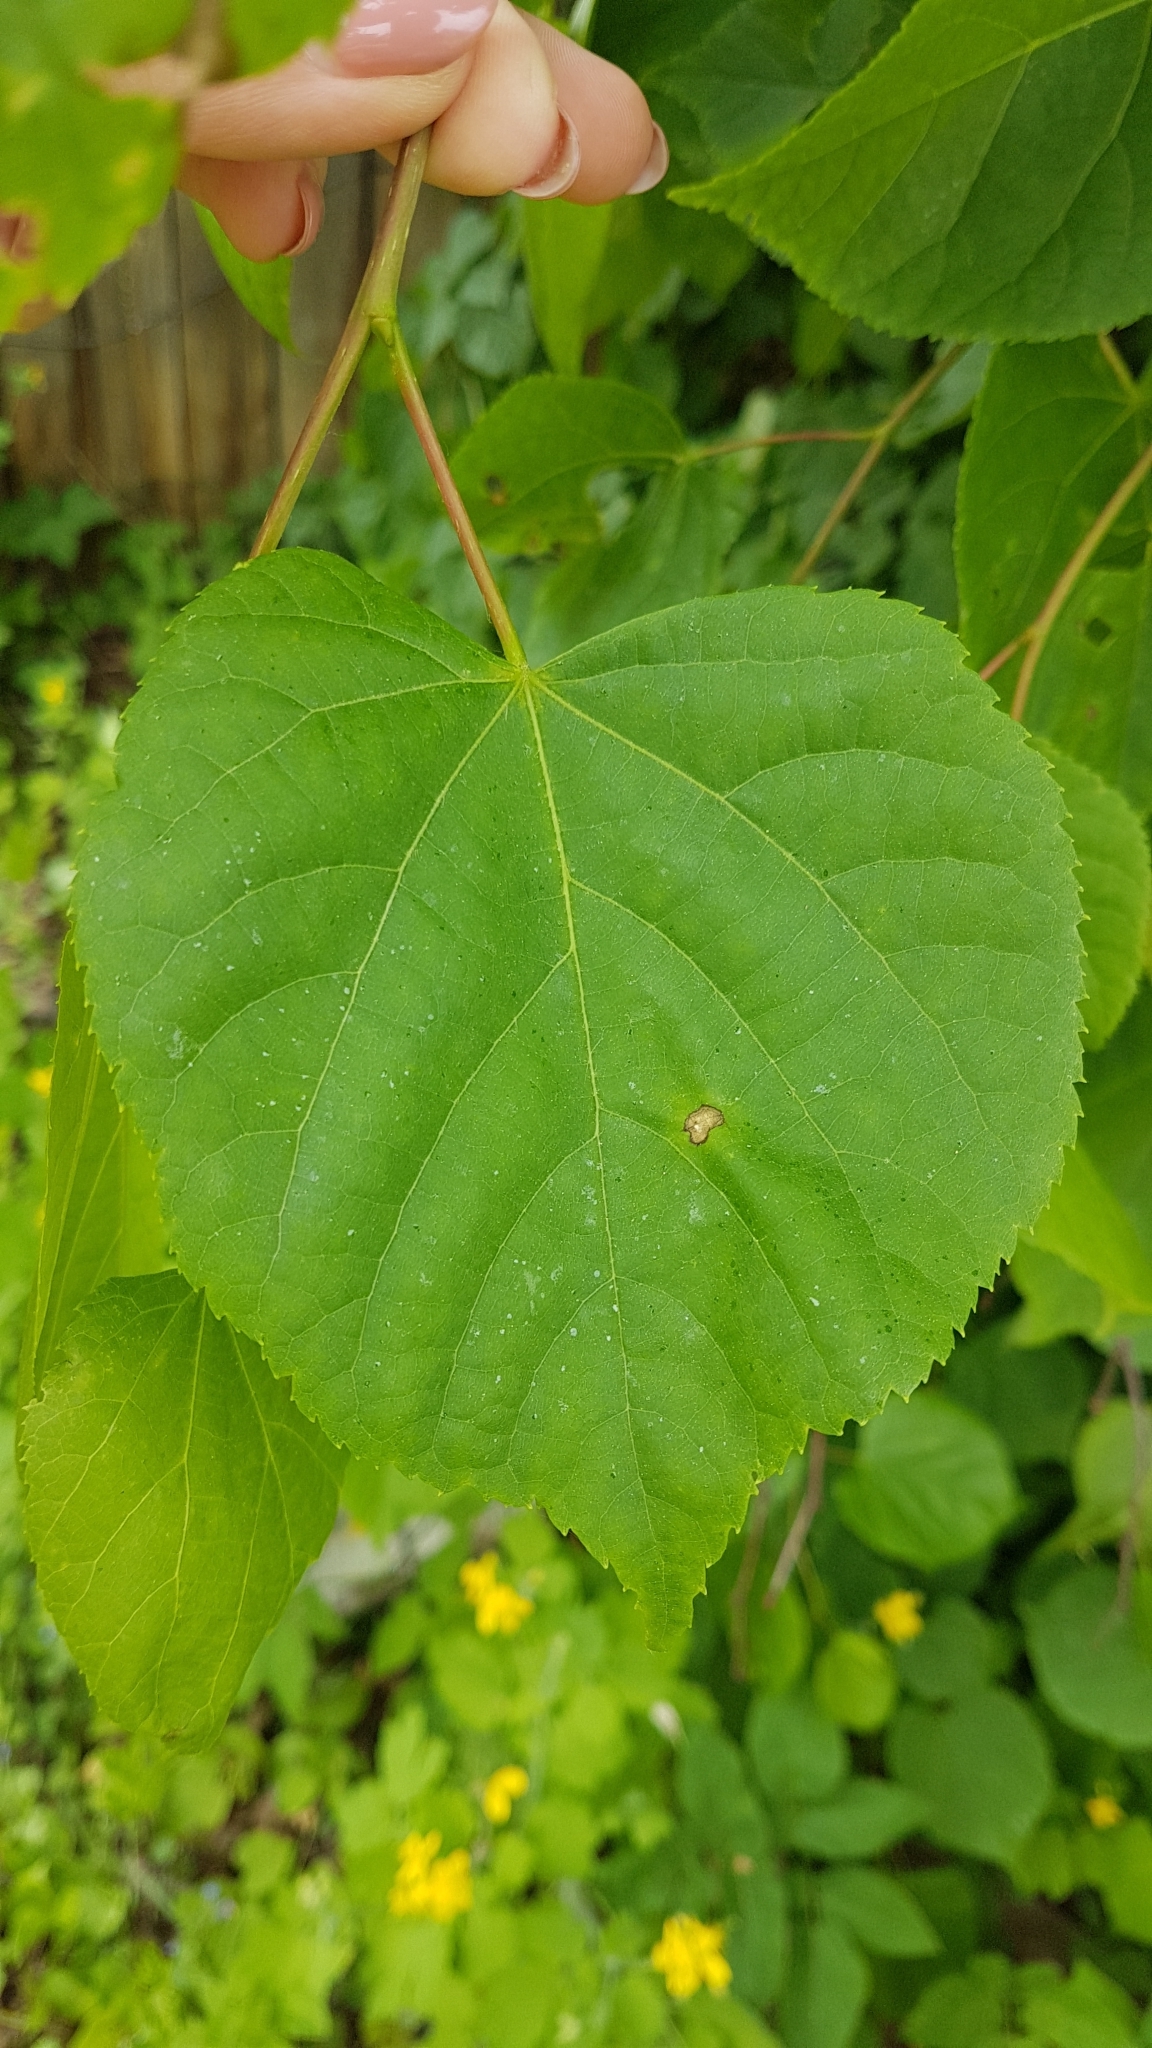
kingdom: Plantae
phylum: Tracheophyta
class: Magnoliopsida
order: Malvales
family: Malvaceae
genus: Tilia
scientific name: Tilia cordata
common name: Small-leaved lime
